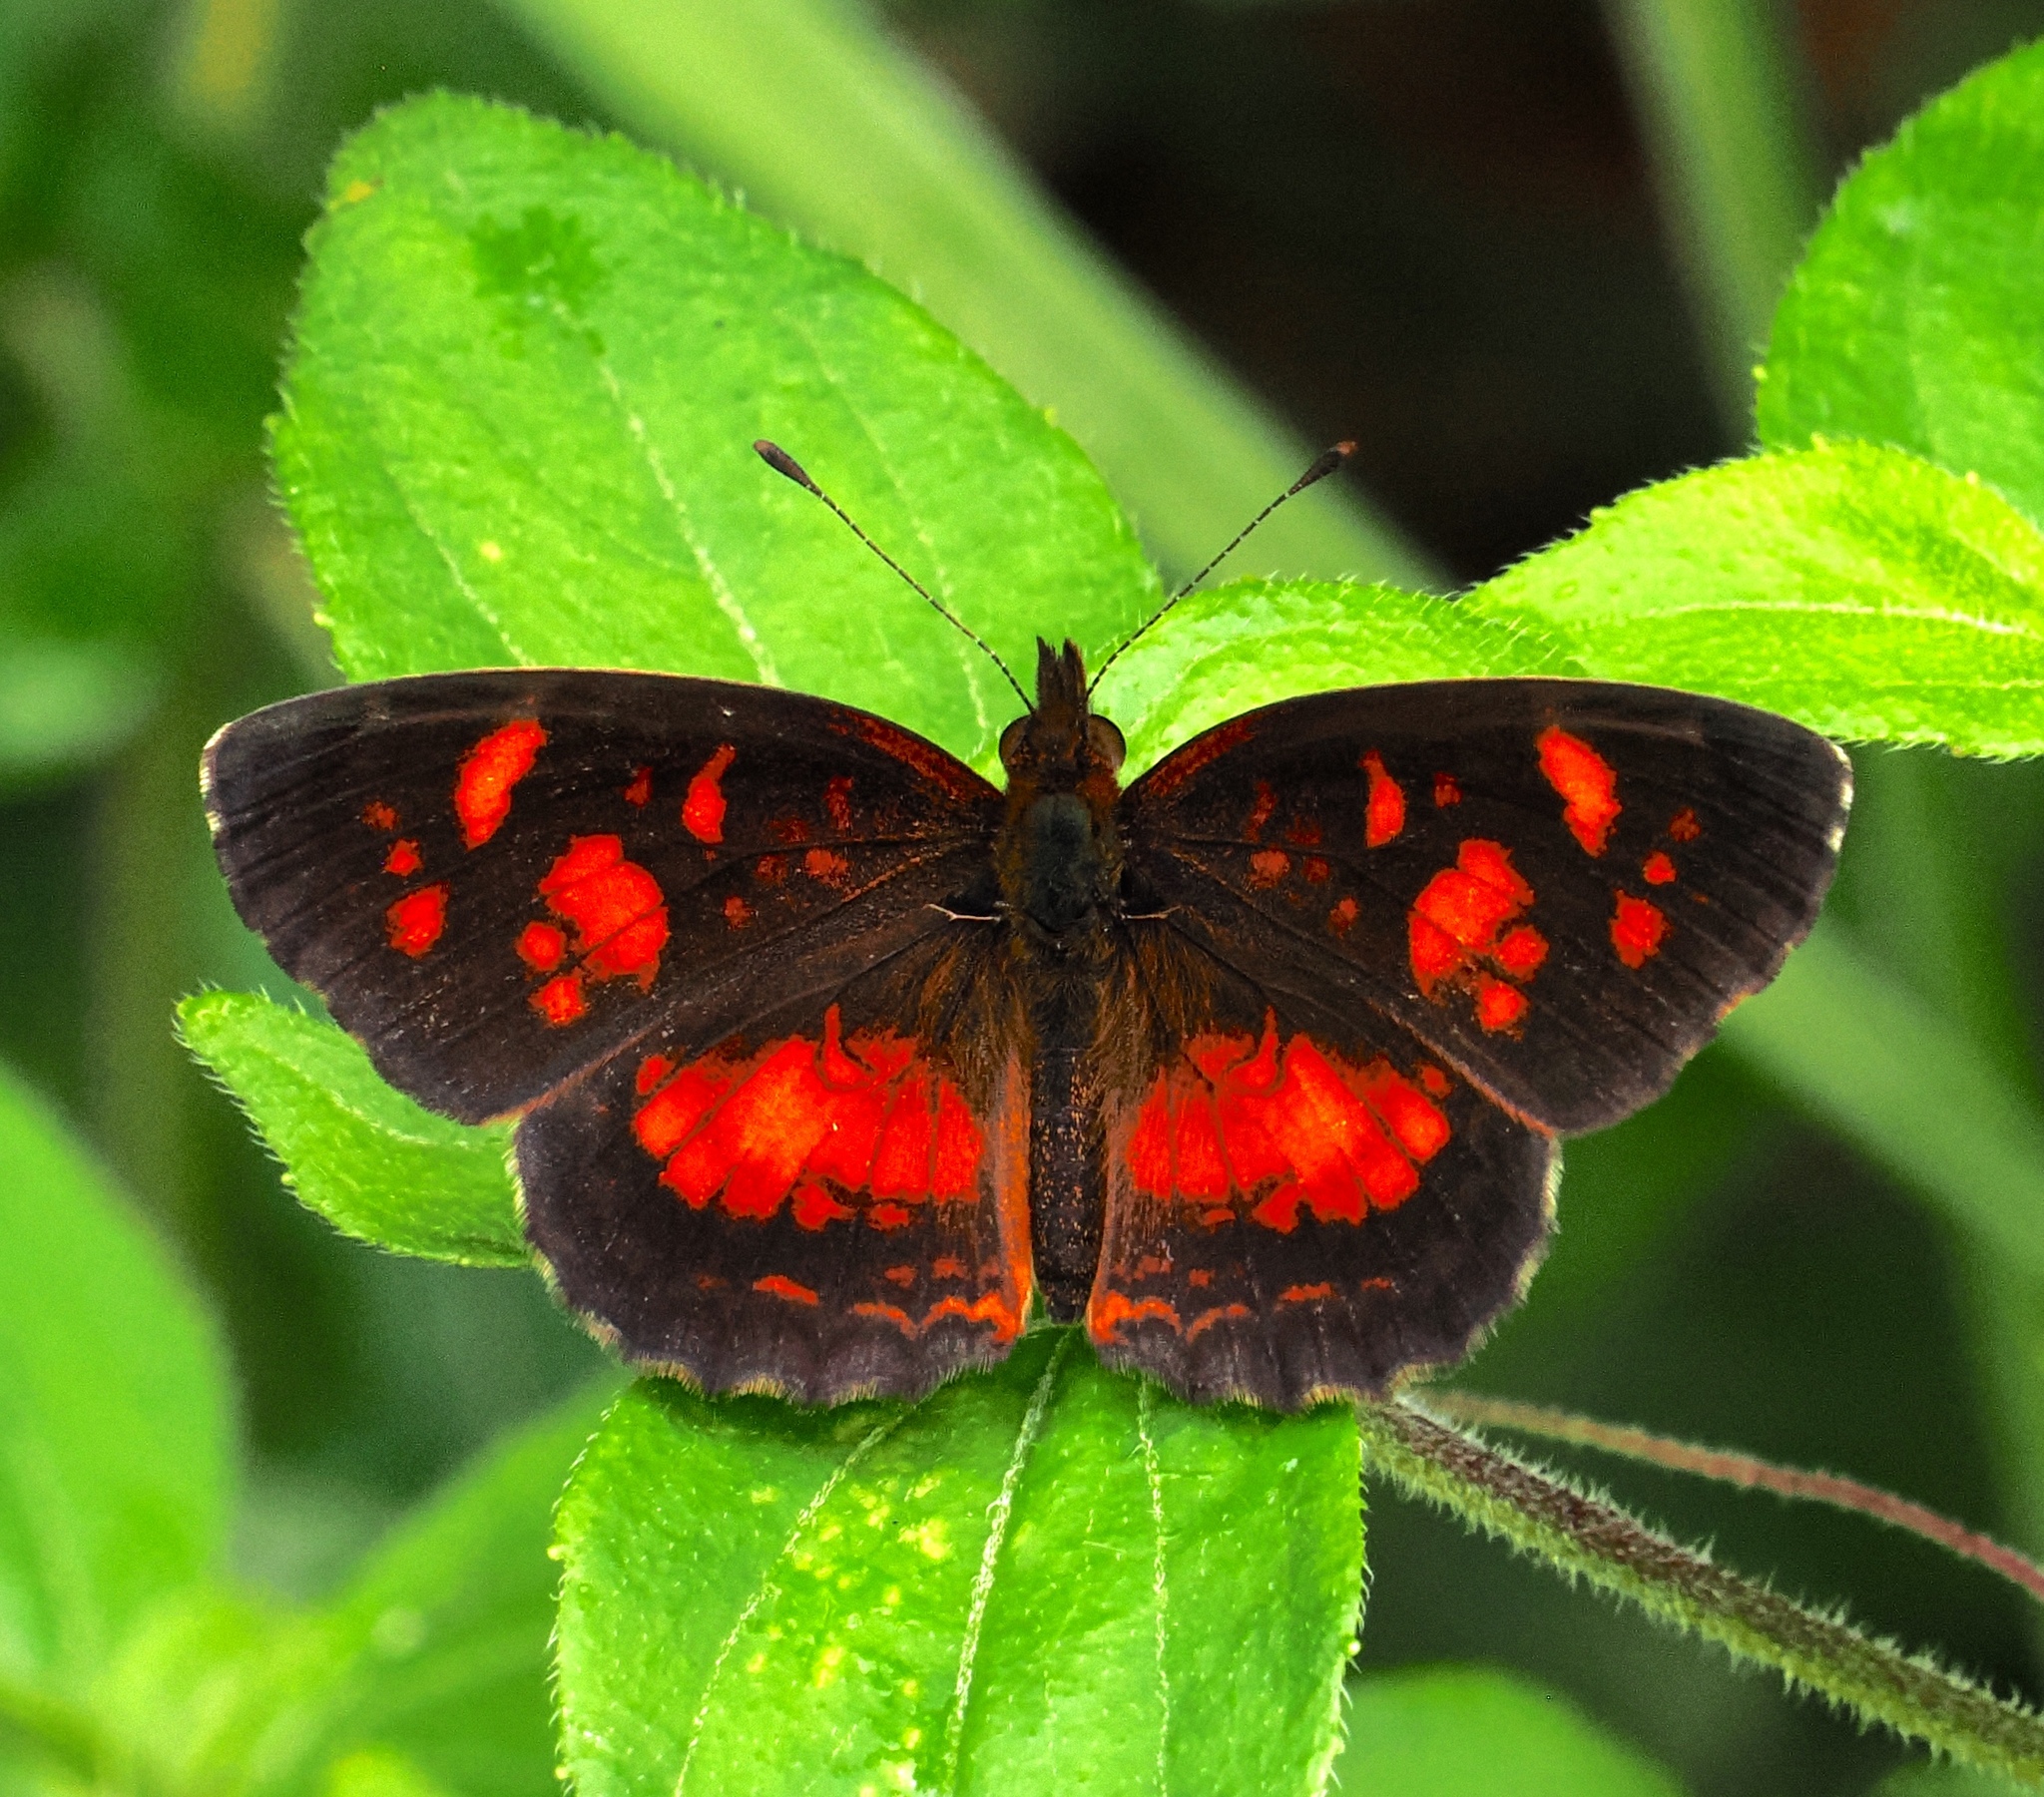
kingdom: Animalia
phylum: Arthropoda
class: Insecta
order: Lepidoptera
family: Nymphalidae
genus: Ortilia
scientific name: Ortilia velica
